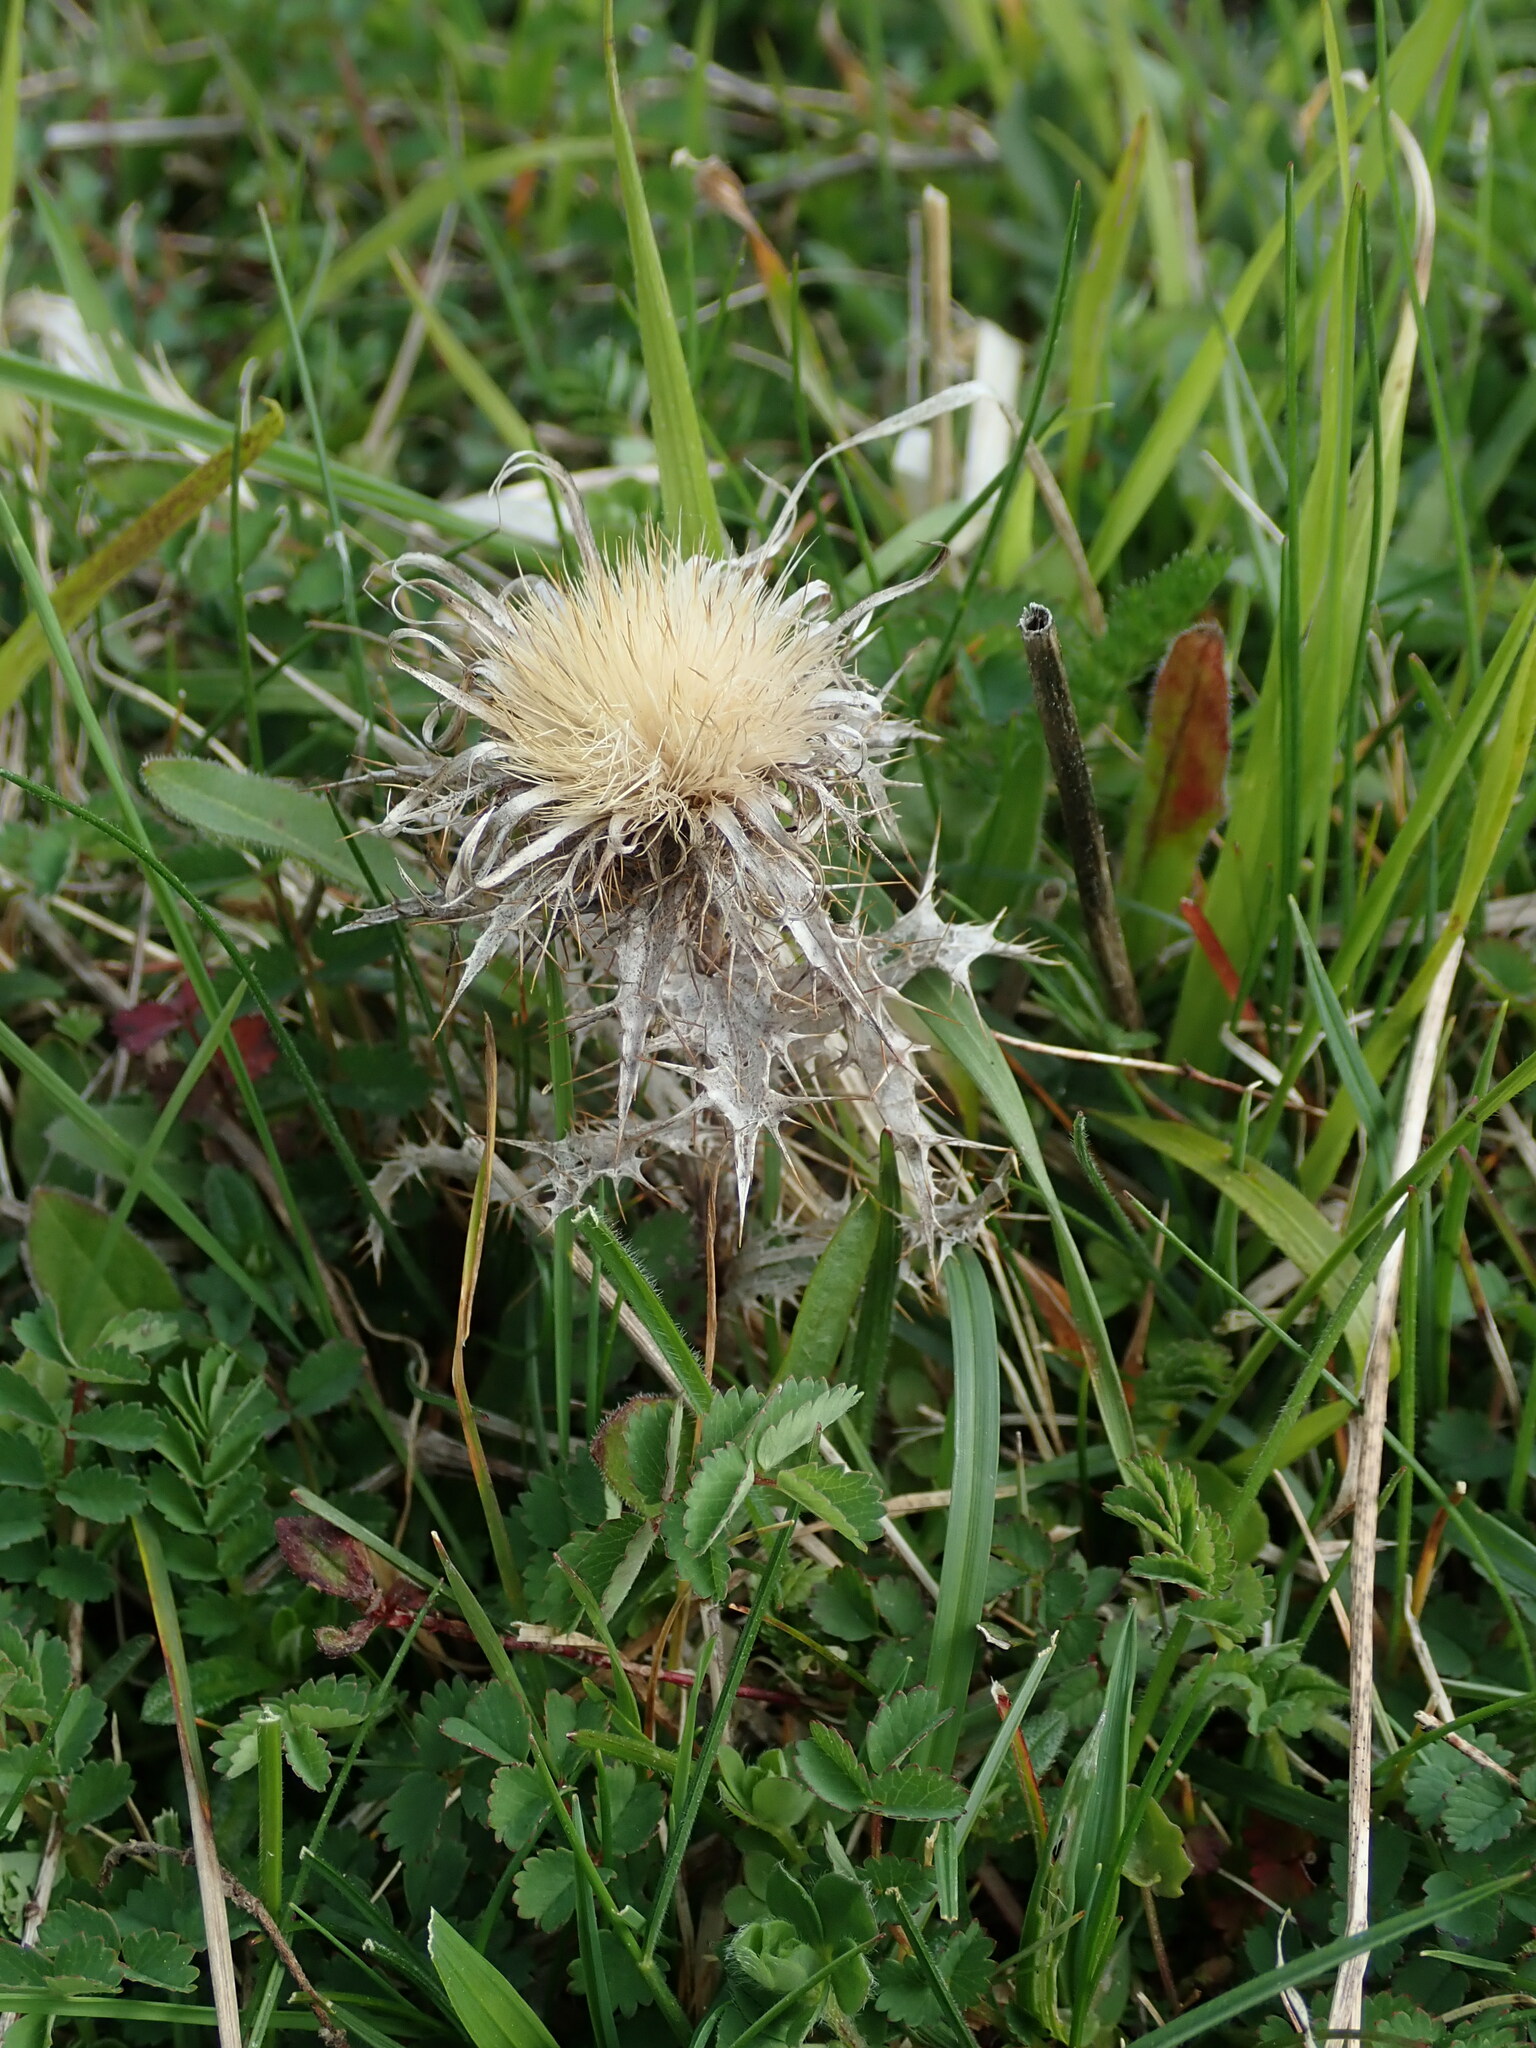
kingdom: Plantae
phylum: Tracheophyta
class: Magnoliopsida
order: Asterales
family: Asteraceae
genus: Carlina
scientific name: Carlina vulgaris
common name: Carline thistle
